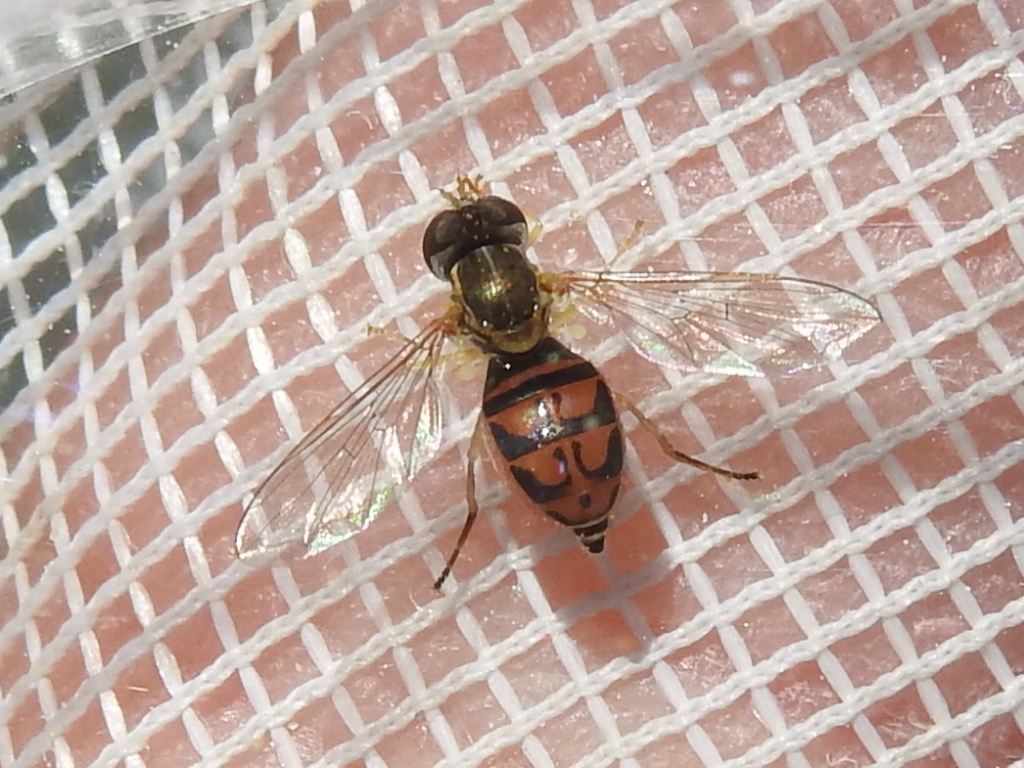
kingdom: Animalia
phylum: Arthropoda
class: Insecta
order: Diptera
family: Syrphidae
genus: Toxomerus
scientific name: Toxomerus marginatus
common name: Syrphid fly
